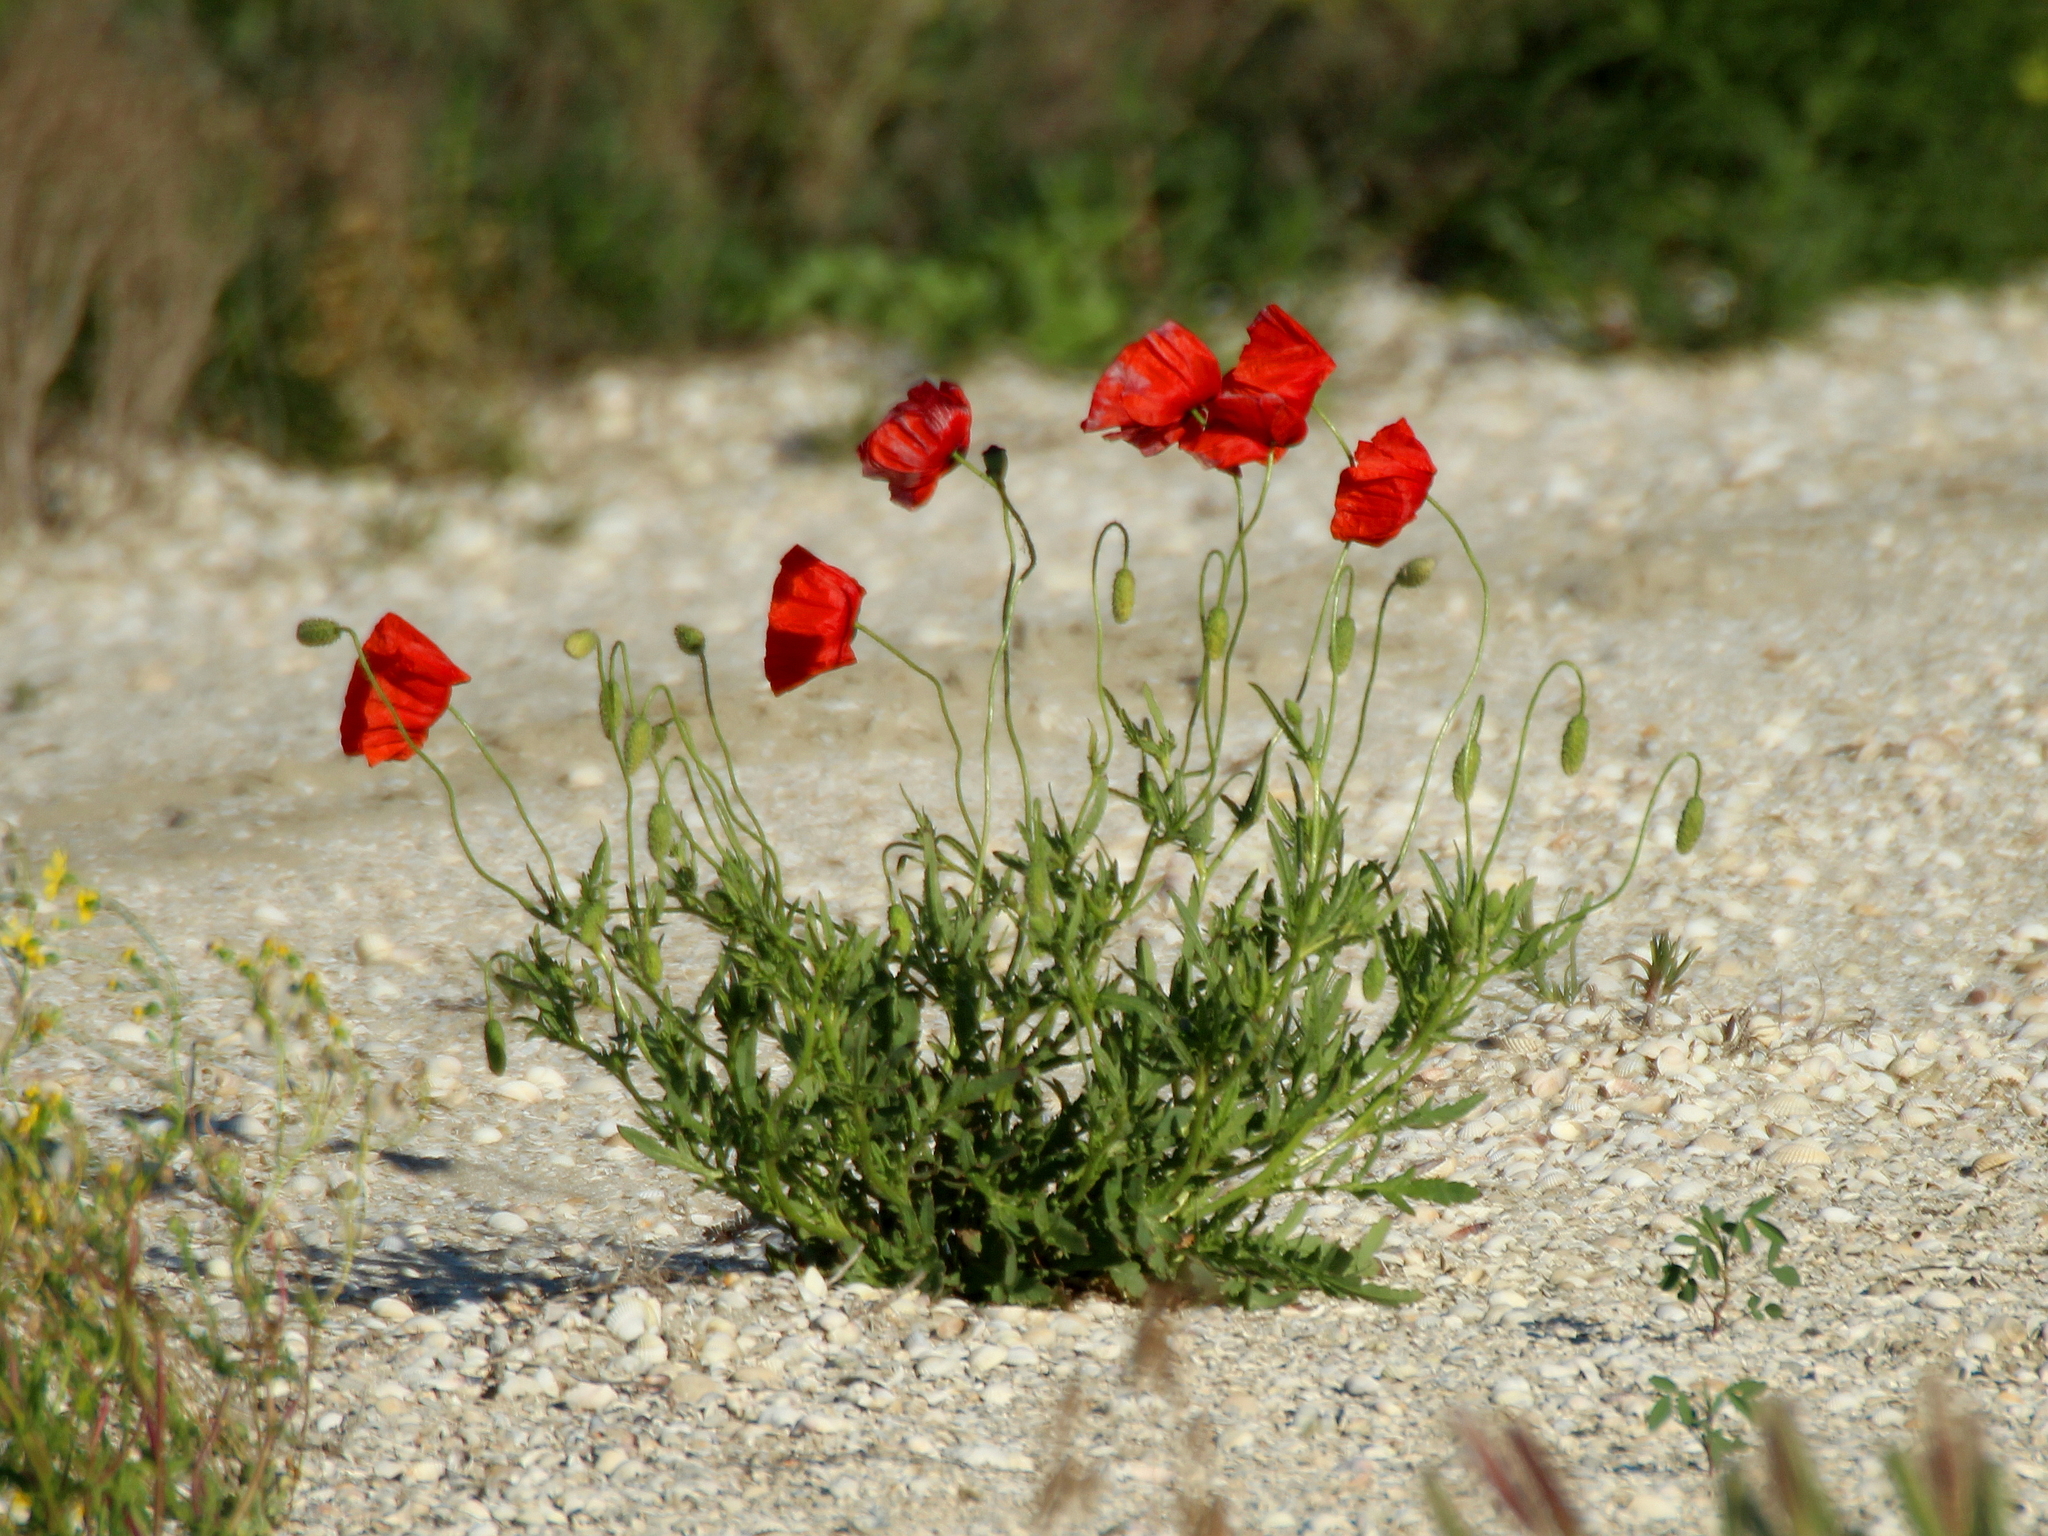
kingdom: Plantae
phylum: Tracheophyta
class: Magnoliopsida
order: Ranunculales
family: Papaveraceae
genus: Papaver
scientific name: Papaver rhoeas
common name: Corn poppy
